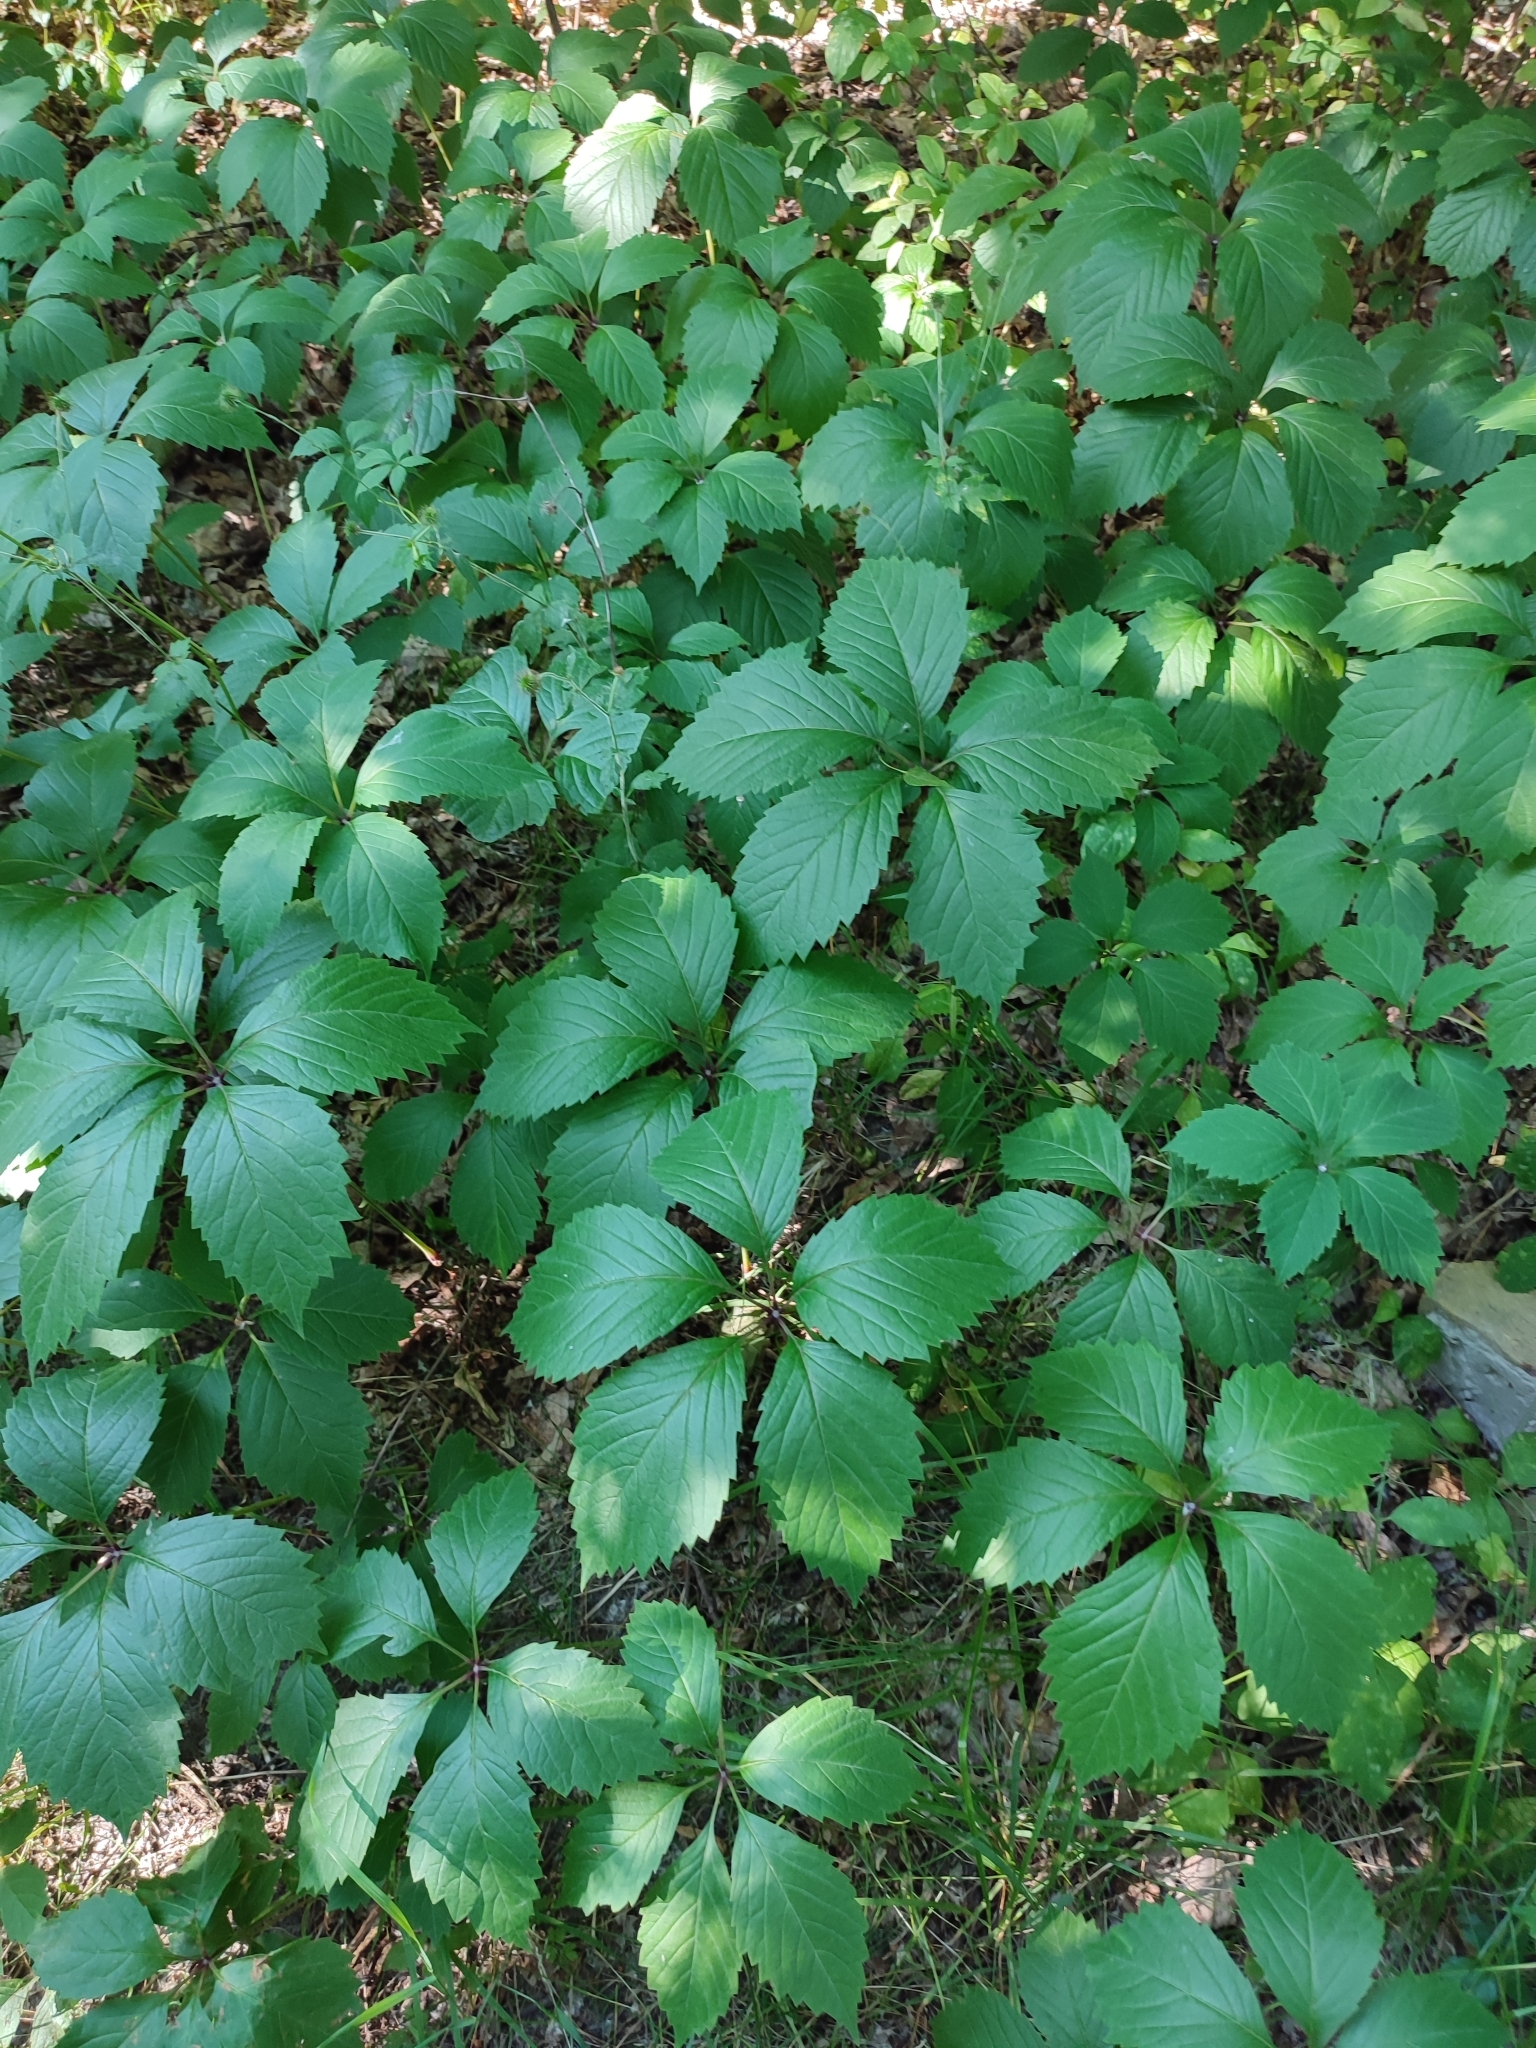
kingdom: Plantae
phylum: Tracheophyta
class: Magnoliopsida
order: Vitales
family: Vitaceae
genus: Parthenocissus
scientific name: Parthenocissus inserta
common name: False virginia-creeper
